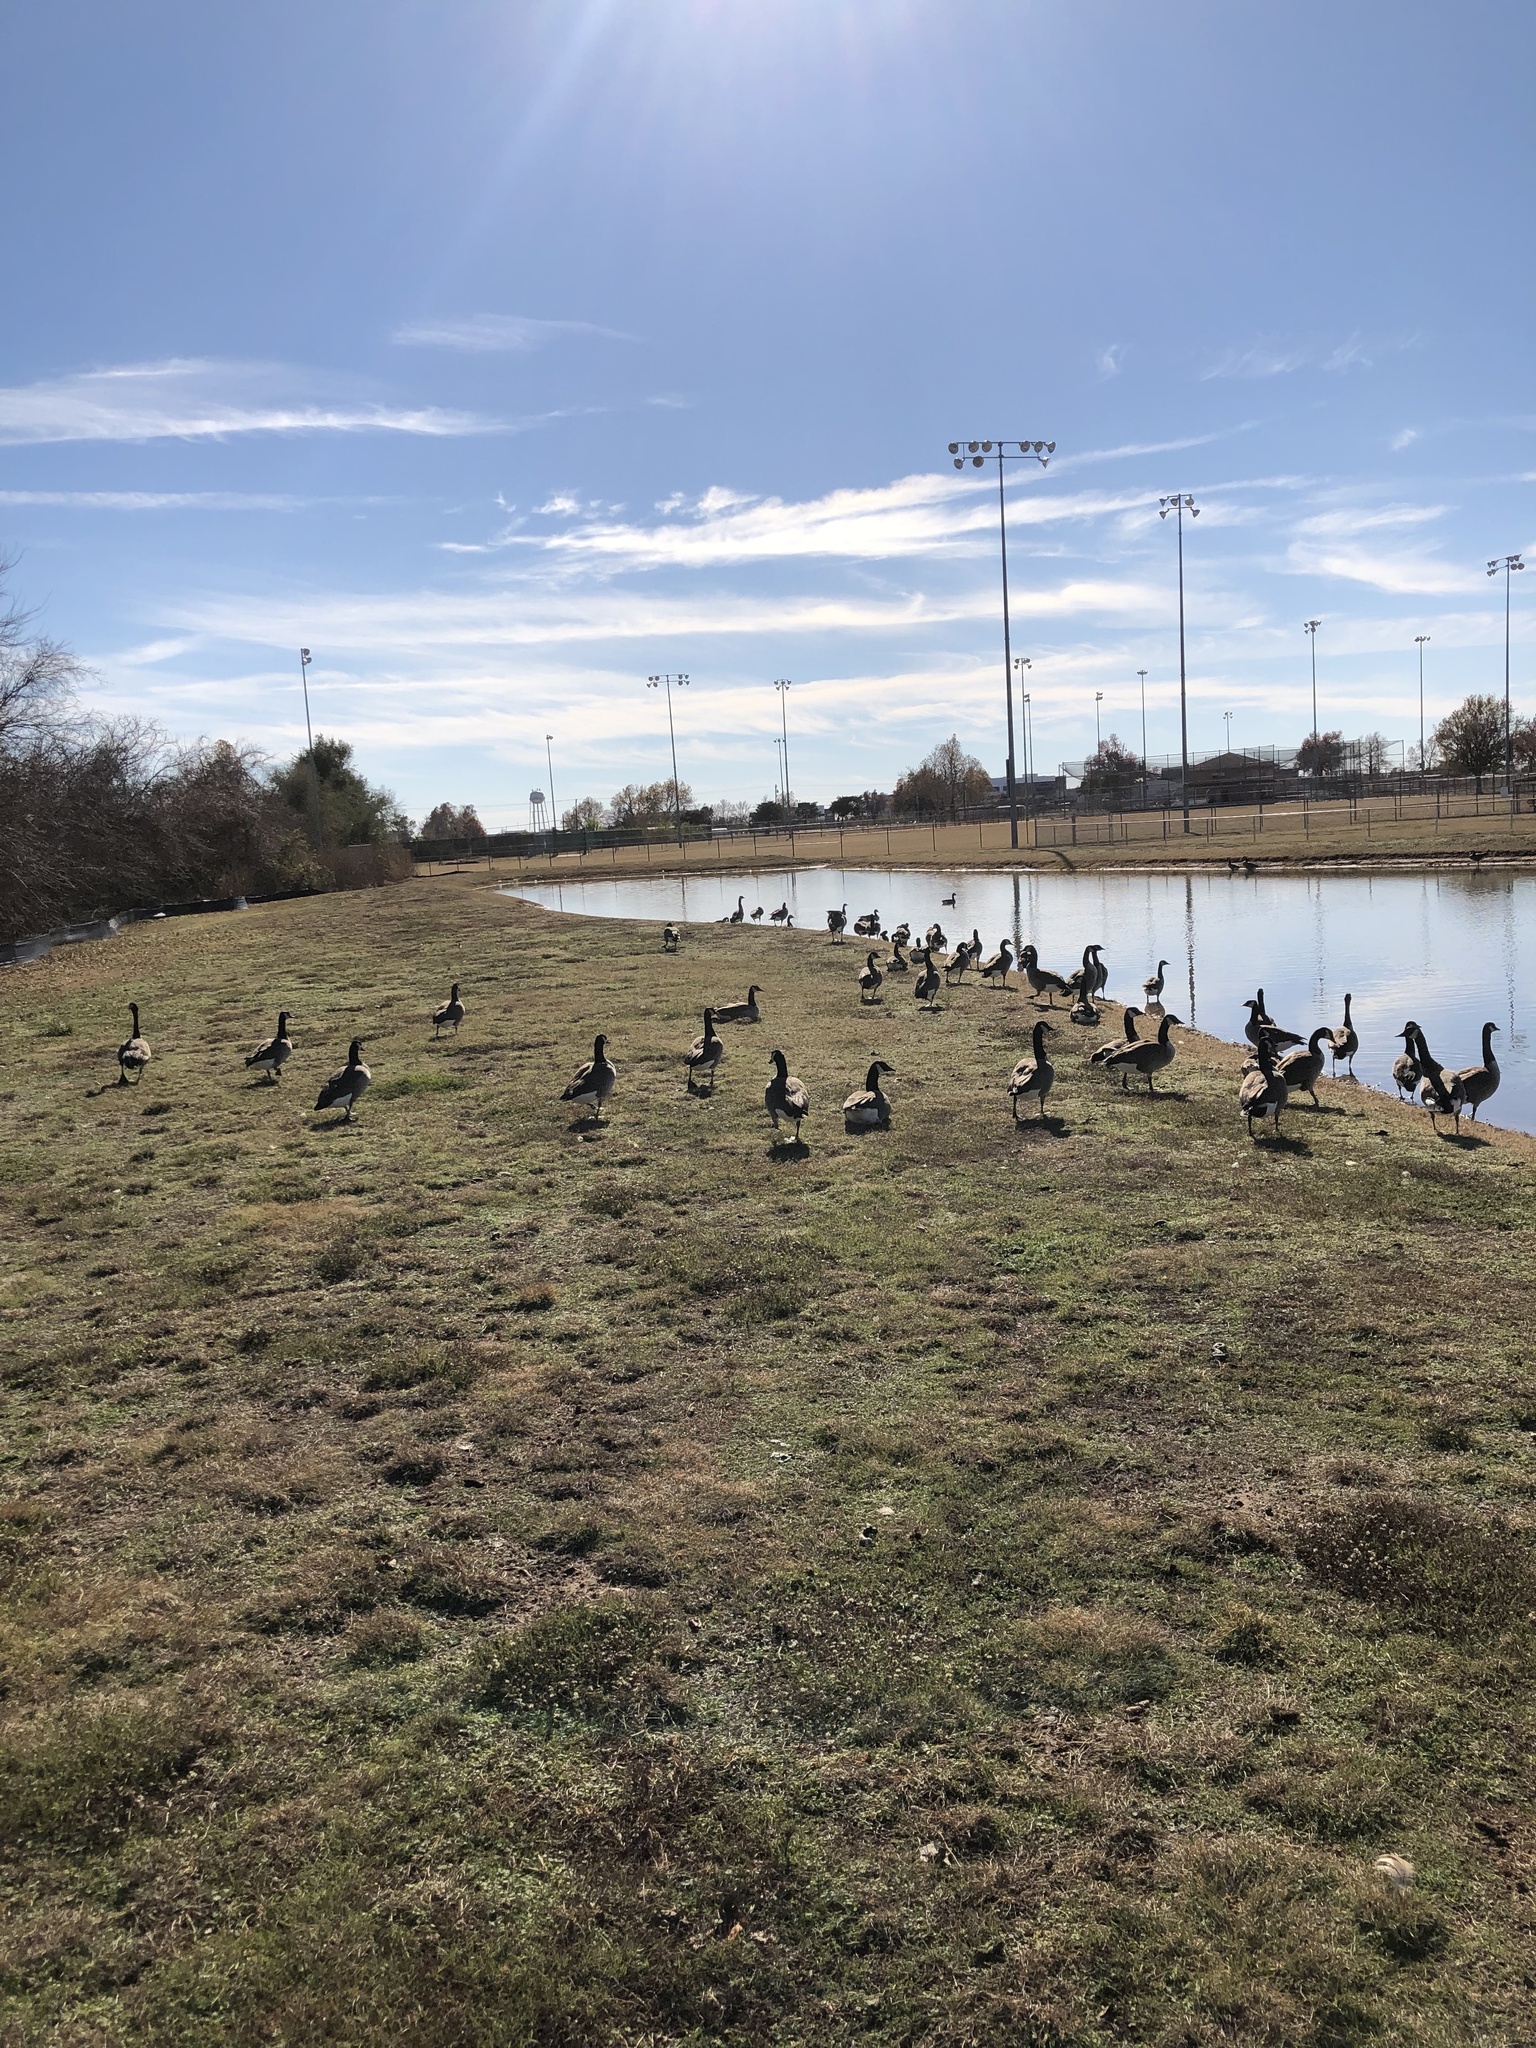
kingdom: Animalia
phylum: Chordata
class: Aves
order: Anseriformes
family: Anatidae
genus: Branta
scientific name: Branta canadensis
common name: Canada goose
